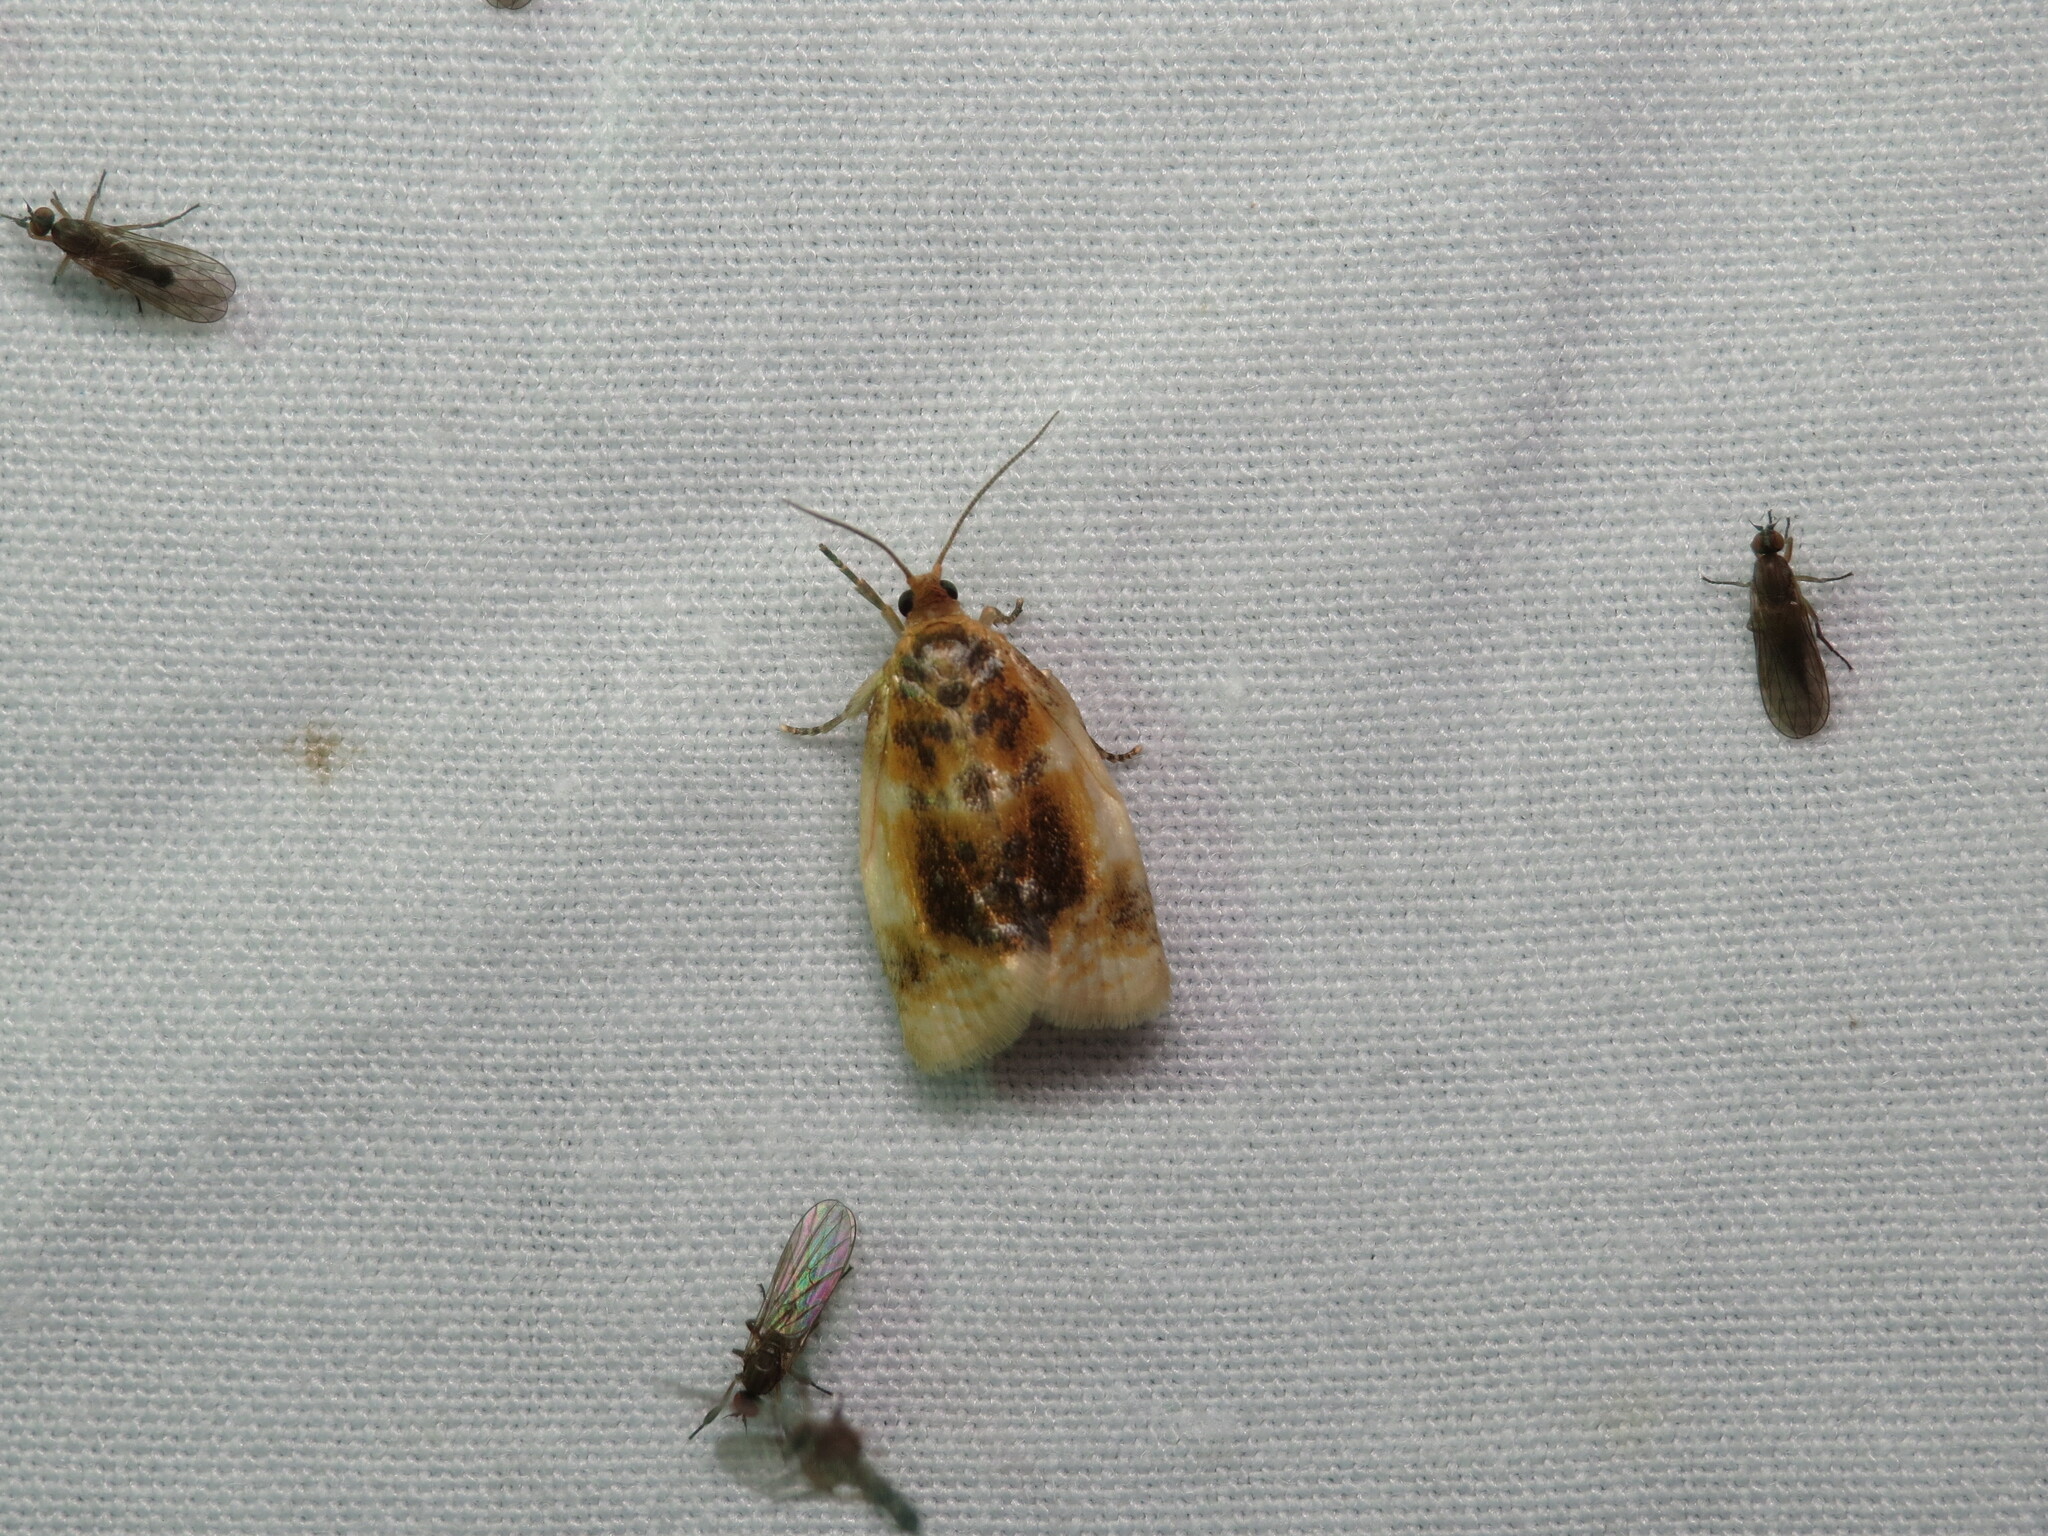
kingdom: Animalia
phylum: Arthropoda
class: Insecta
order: Lepidoptera
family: Tortricidae
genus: Clepsis
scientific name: Clepsis melaleucanus
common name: American apple tortrix
